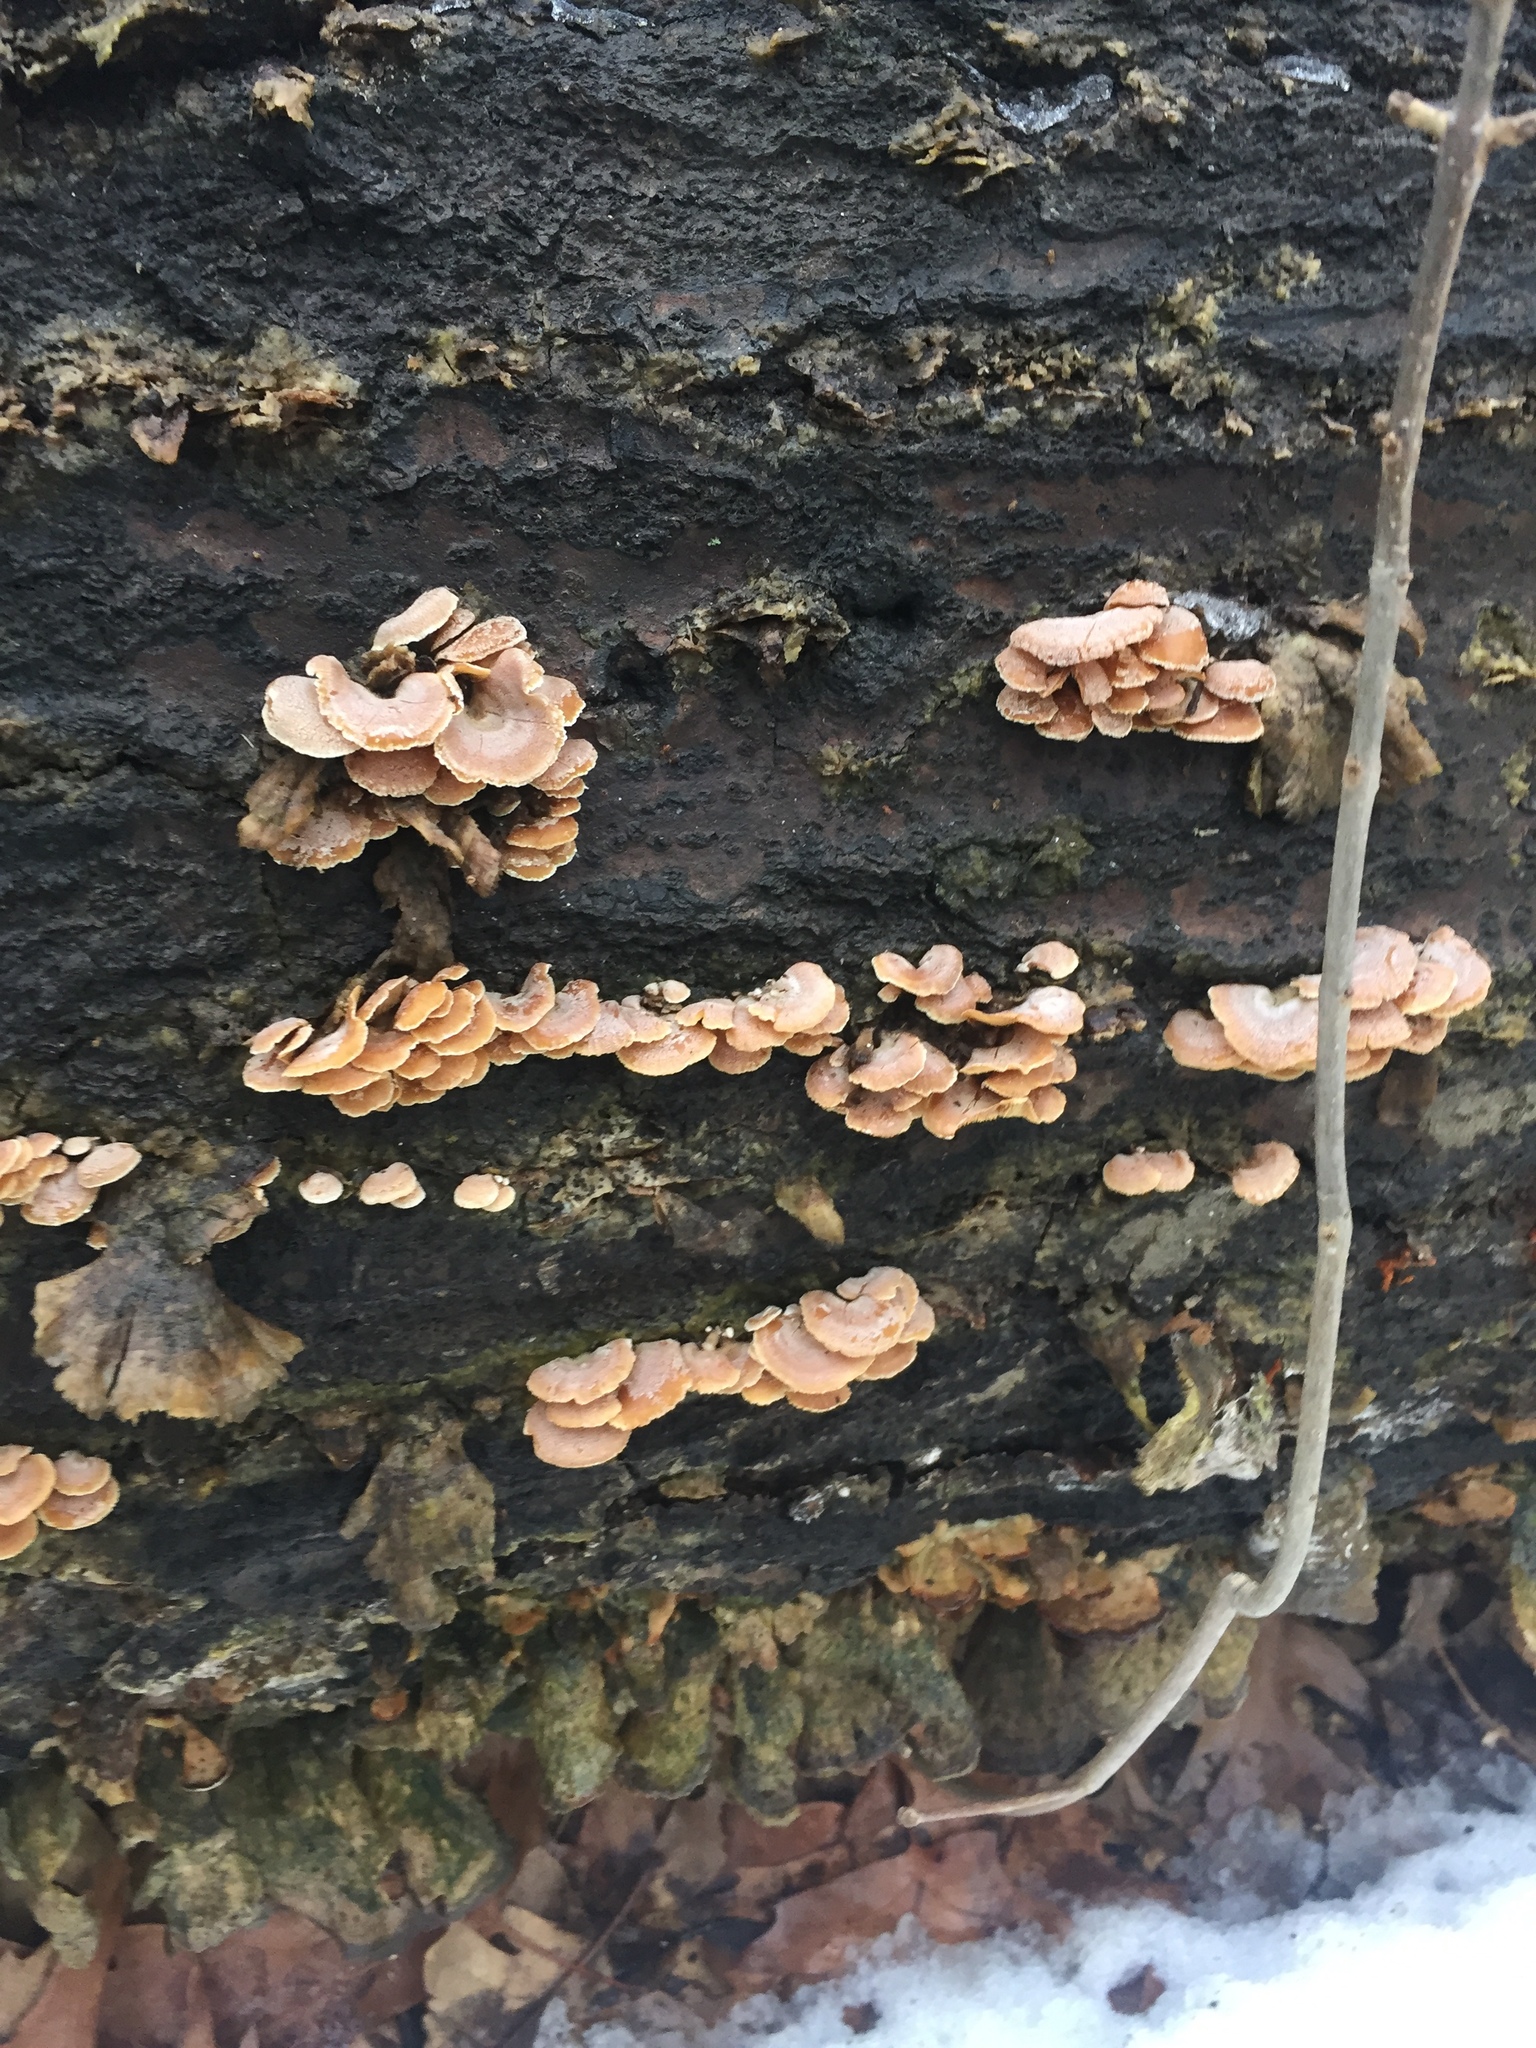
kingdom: Fungi
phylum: Basidiomycota
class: Agaricomycetes
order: Agaricales
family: Mycenaceae
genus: Panellus
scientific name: Panellus stipticus
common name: Bitter oysterling
